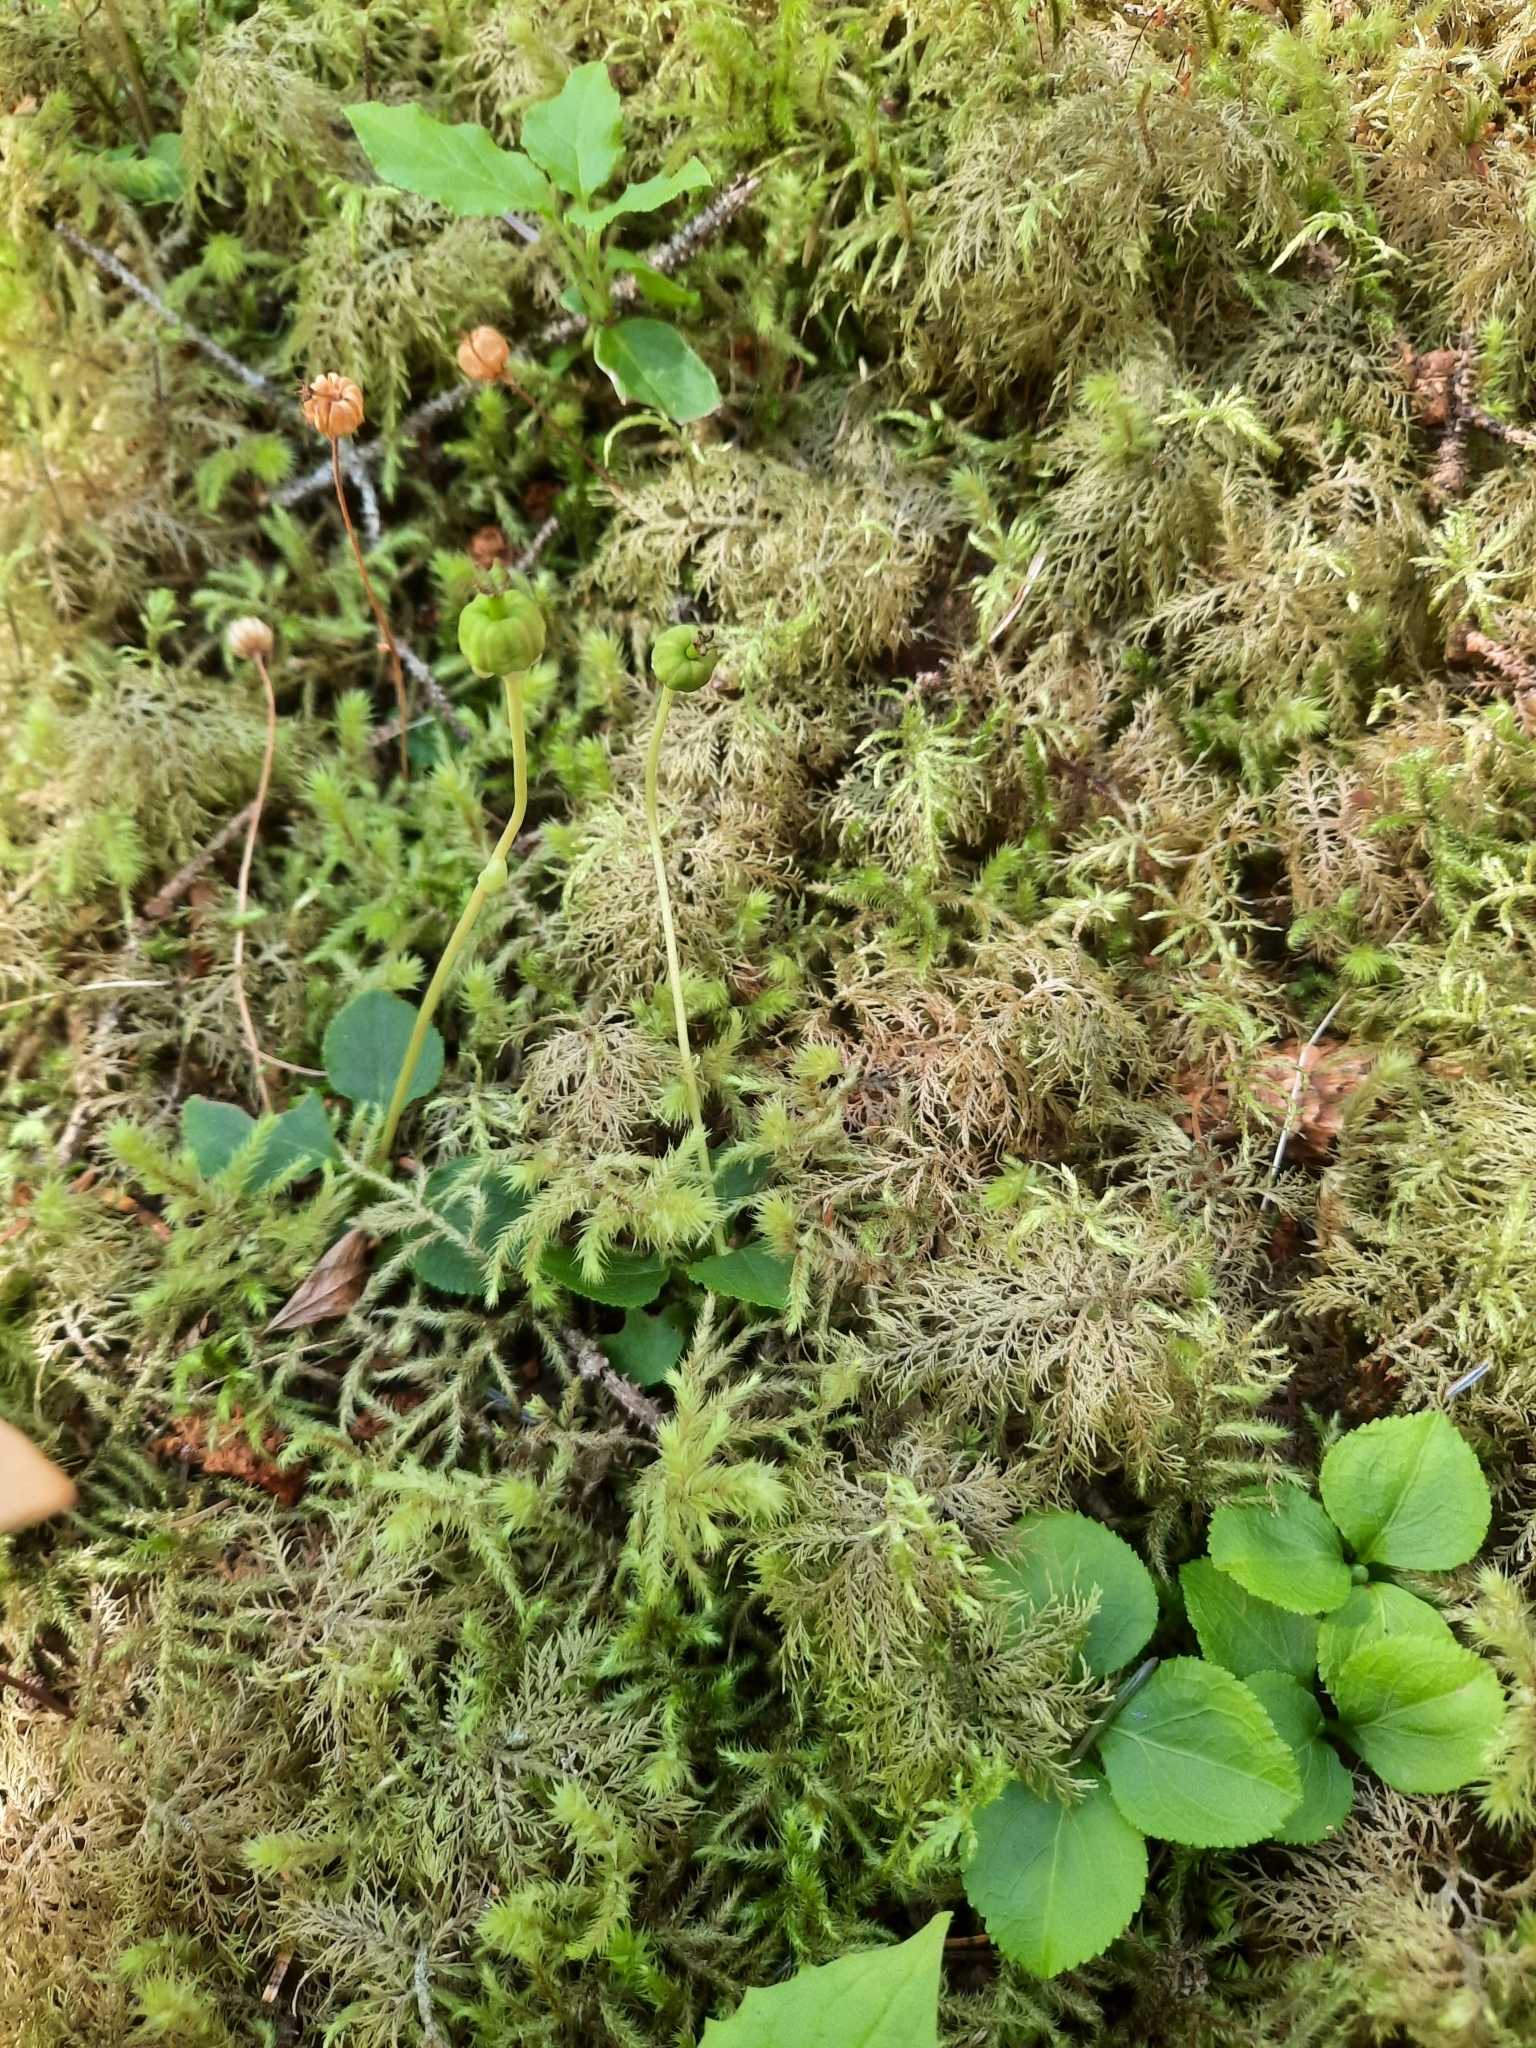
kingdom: Plantae
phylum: Tracheophyta
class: Magnoliopsida
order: Ericales
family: Ericaceae
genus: Moneses
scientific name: Moneses uniflora
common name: One-flowered wintergreen
